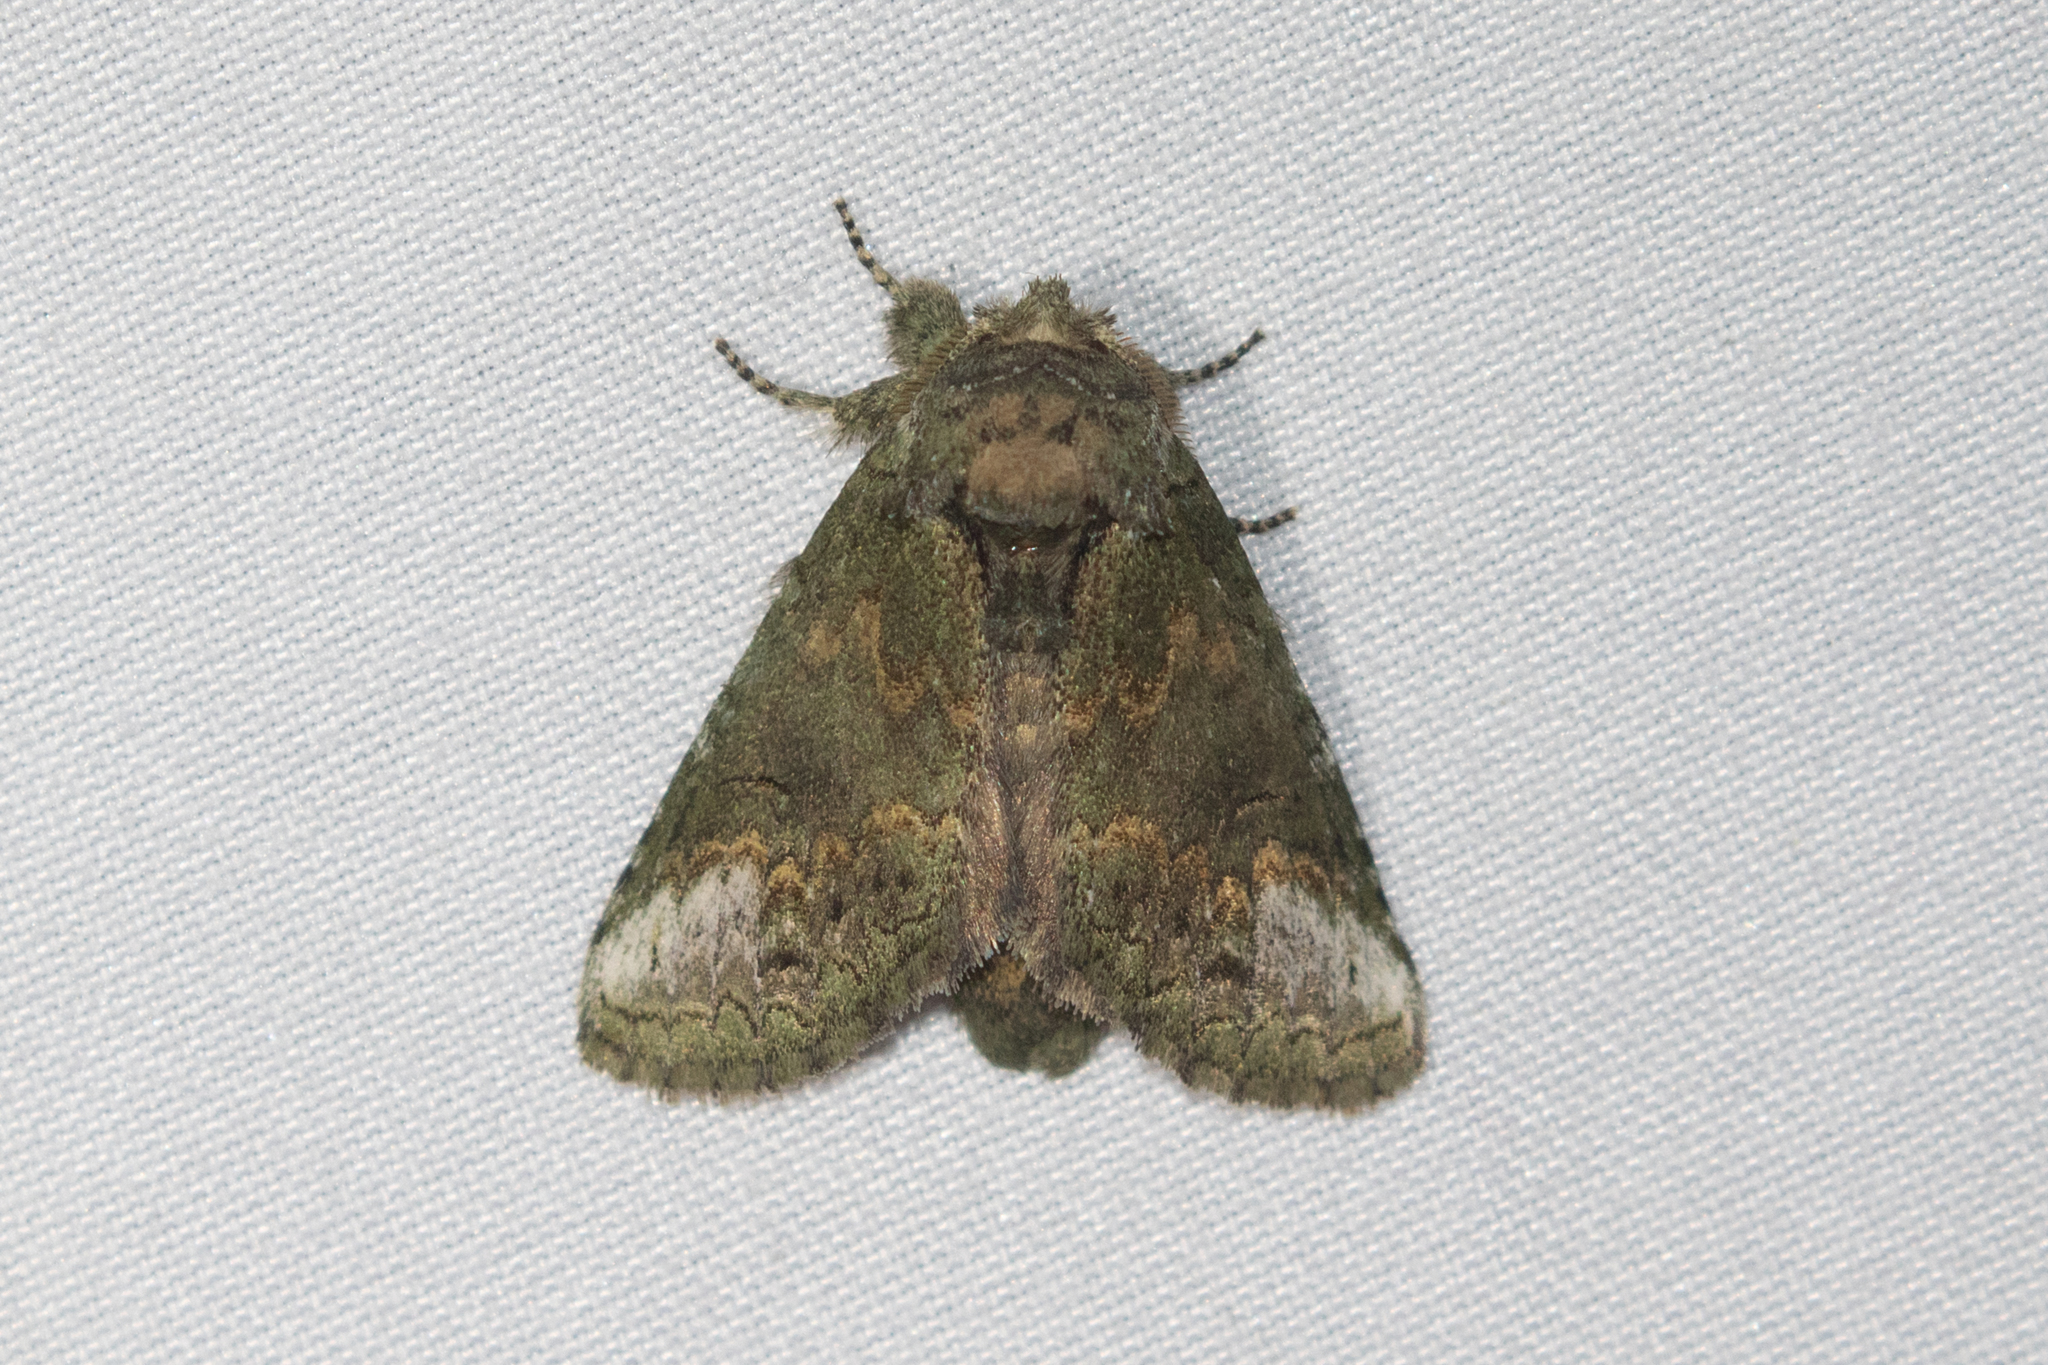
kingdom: Animalia
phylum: Arthropoda
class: Insecta
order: Lepidoptera
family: Notodontidae
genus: Rifargia
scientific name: Rifargia
